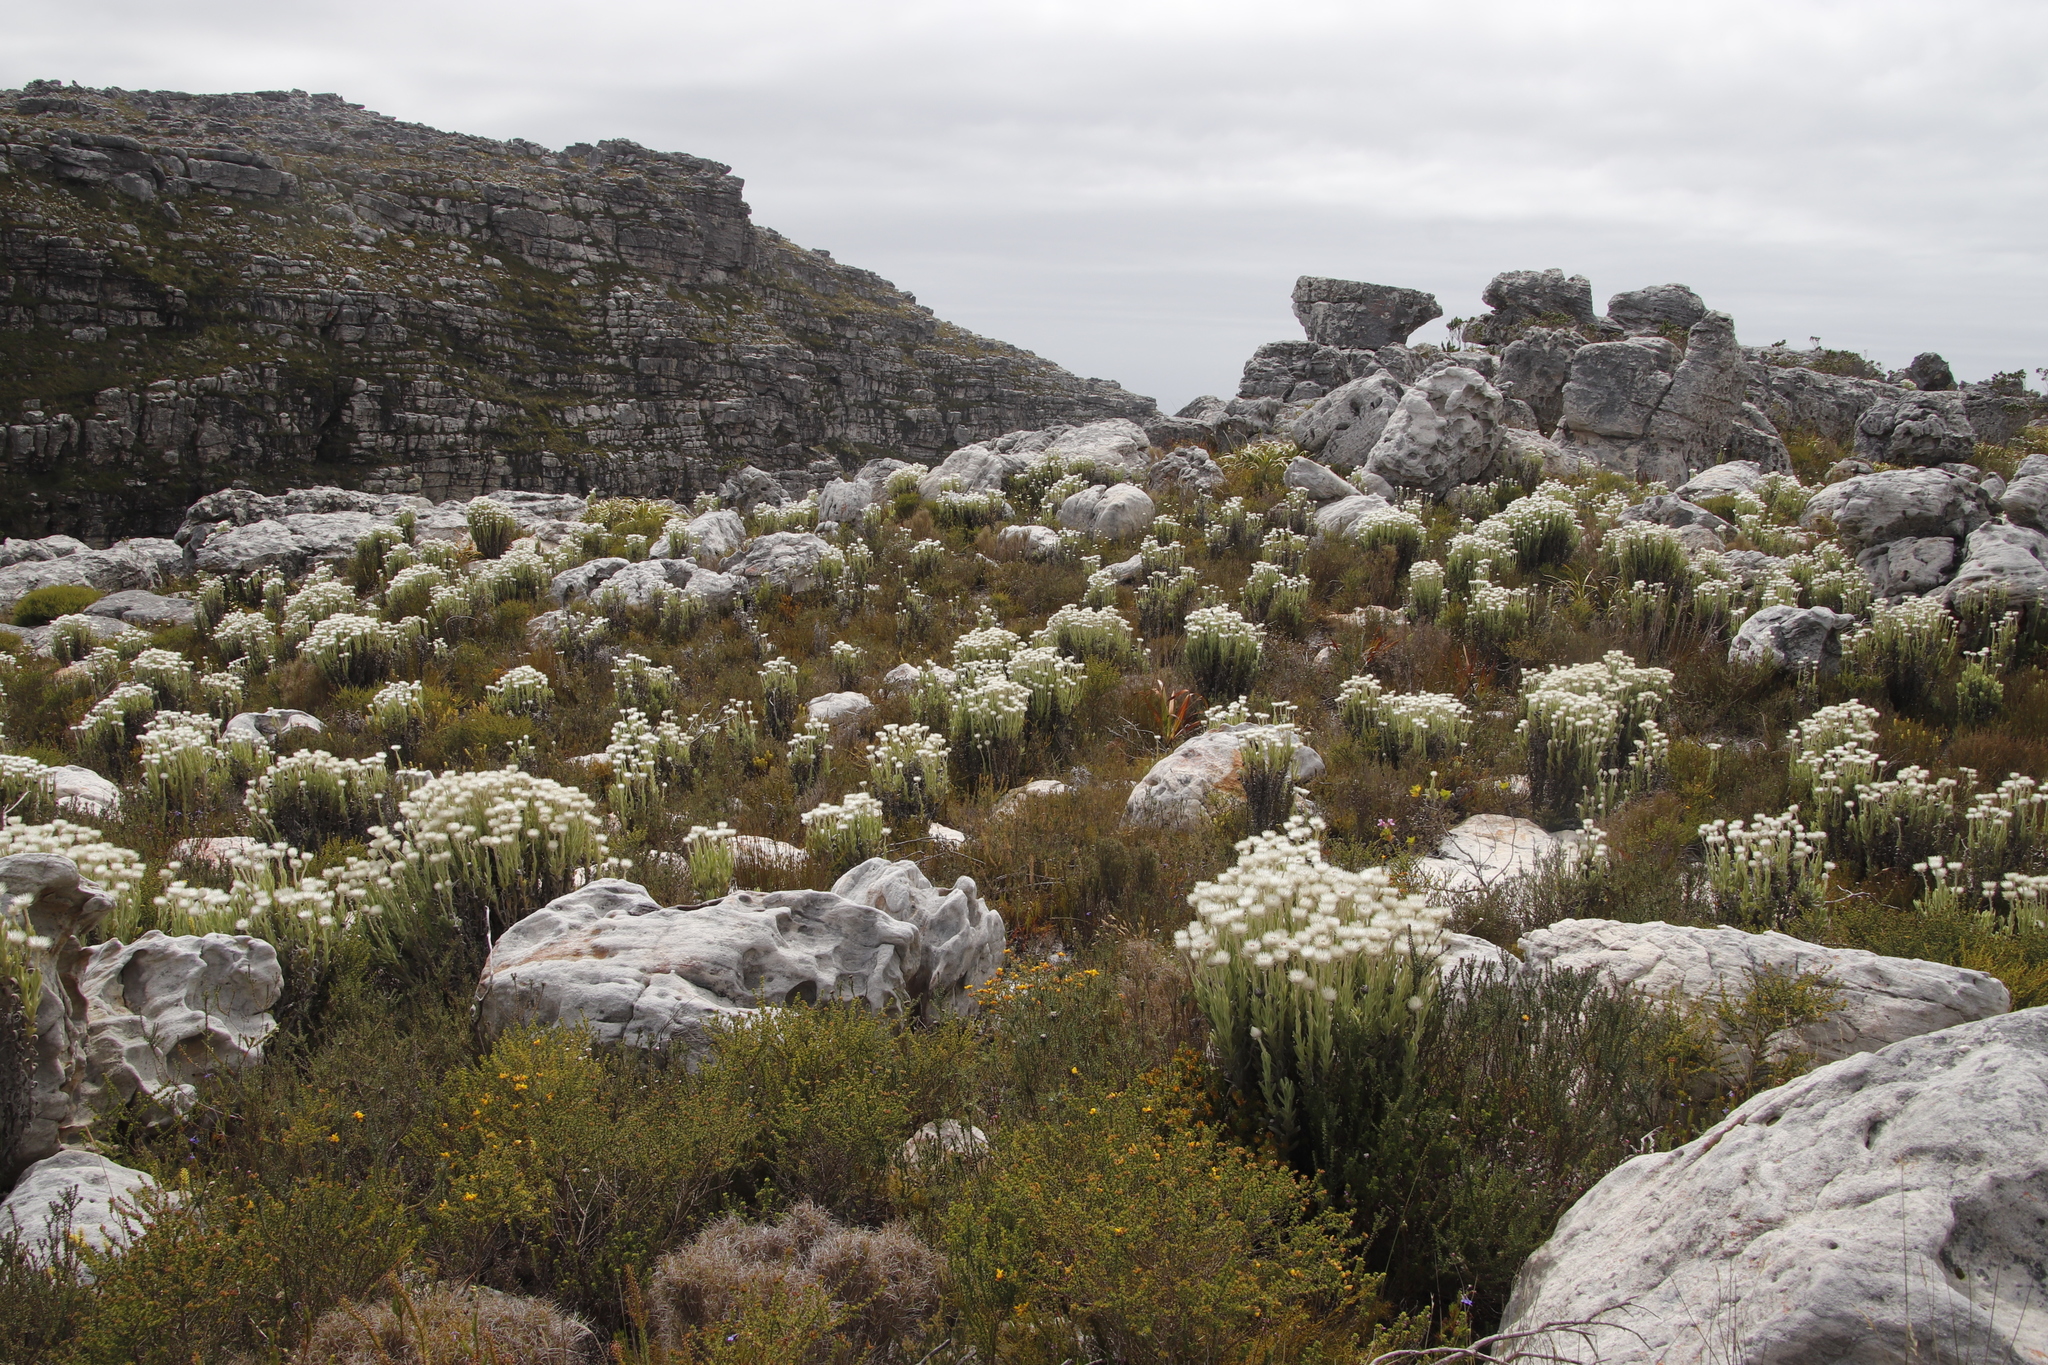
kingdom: Plantae
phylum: Tracheophyta
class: Magnoliopsida
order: Asterales
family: Asteraceae
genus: Syncarpha
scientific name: Syncarpha vestita
